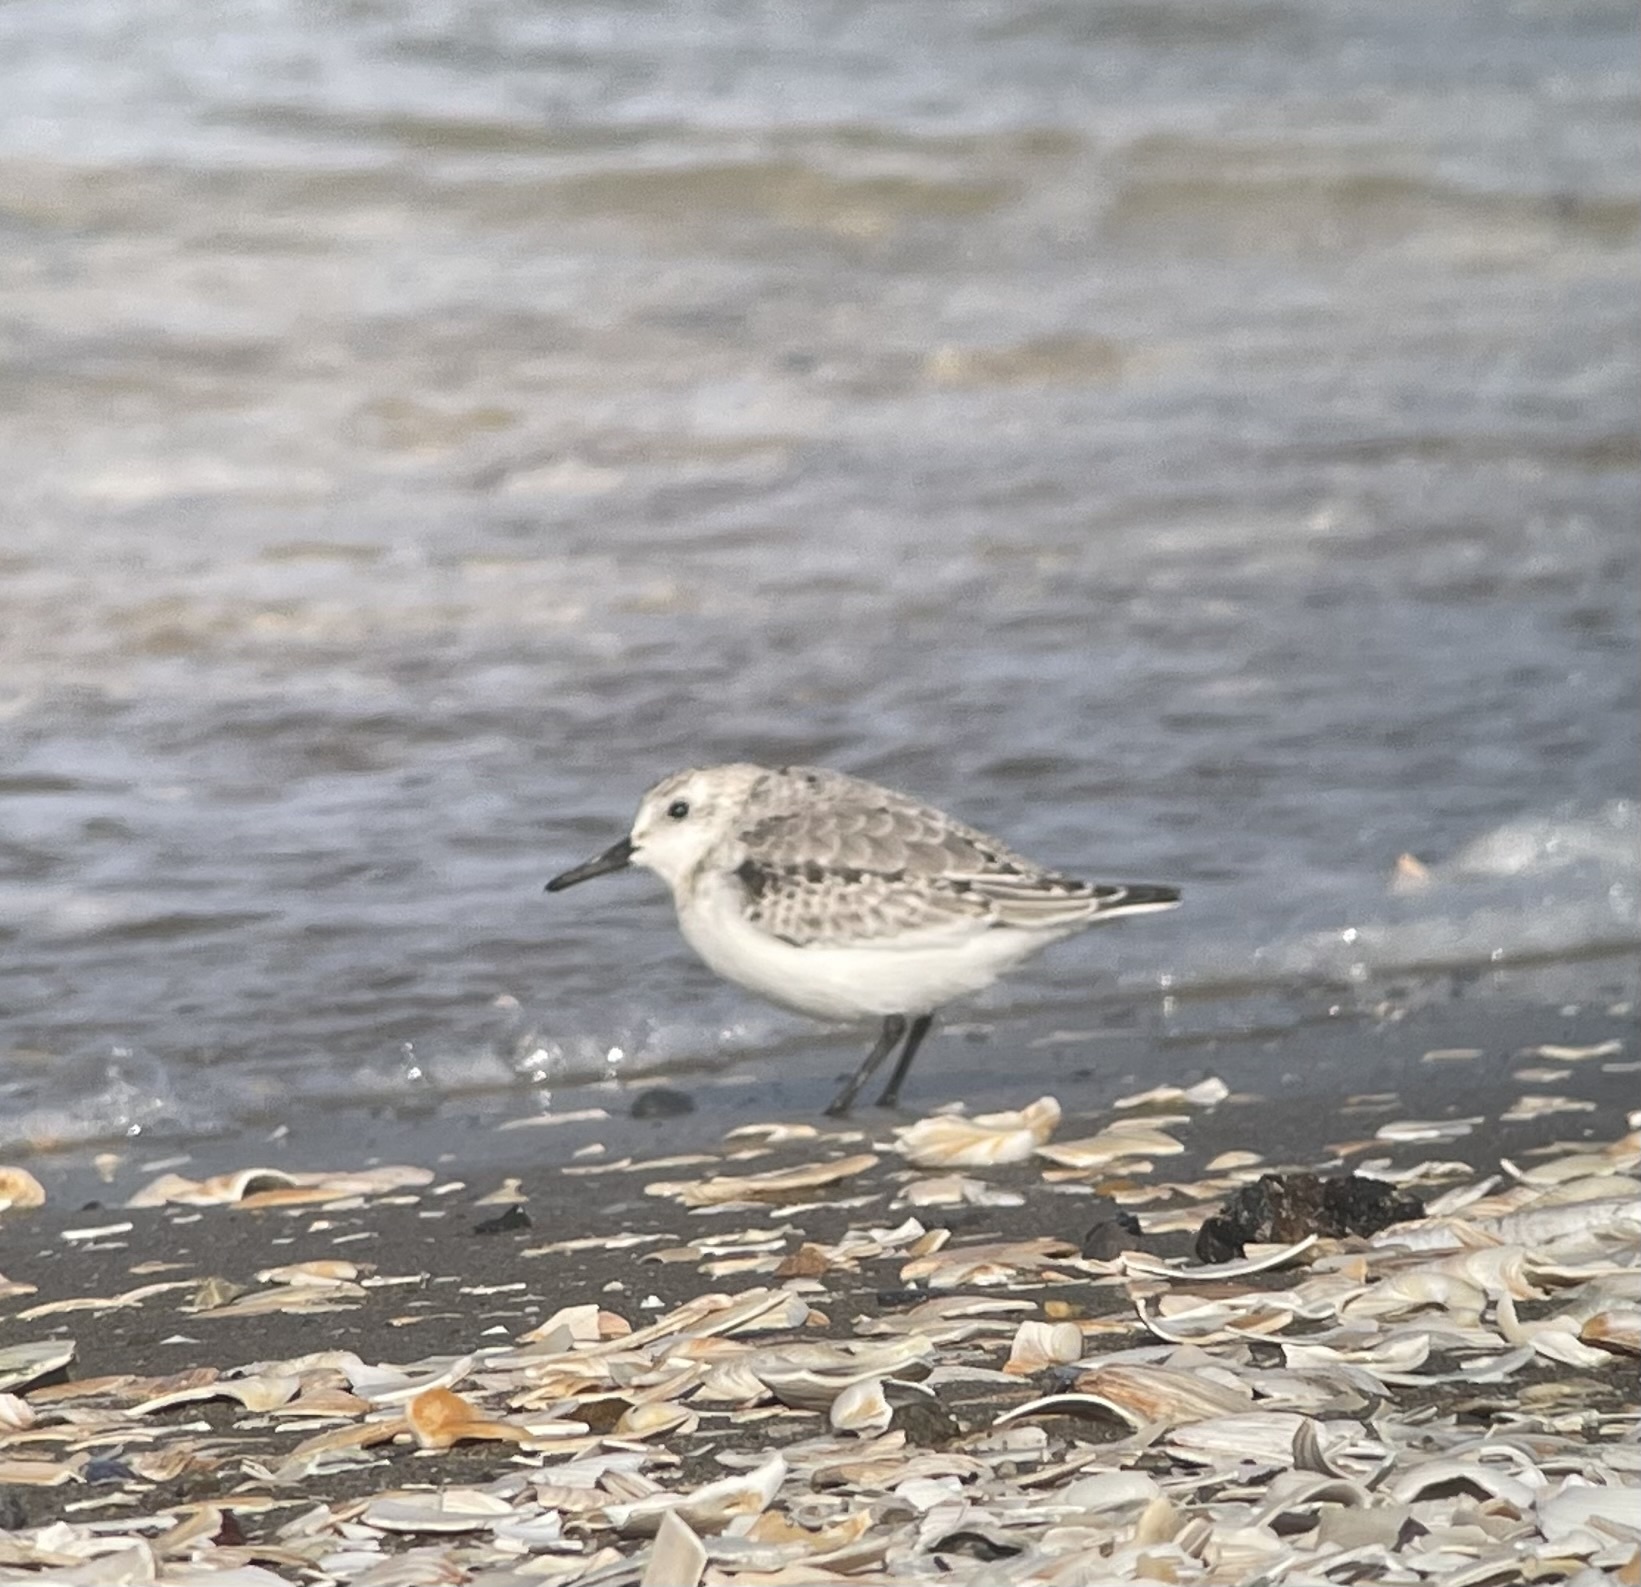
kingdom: Animalia
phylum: Chordata
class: Aves
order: Charadriiformes
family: Scolopacidae
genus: Calidris
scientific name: Calidris alba
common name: Sanderling
